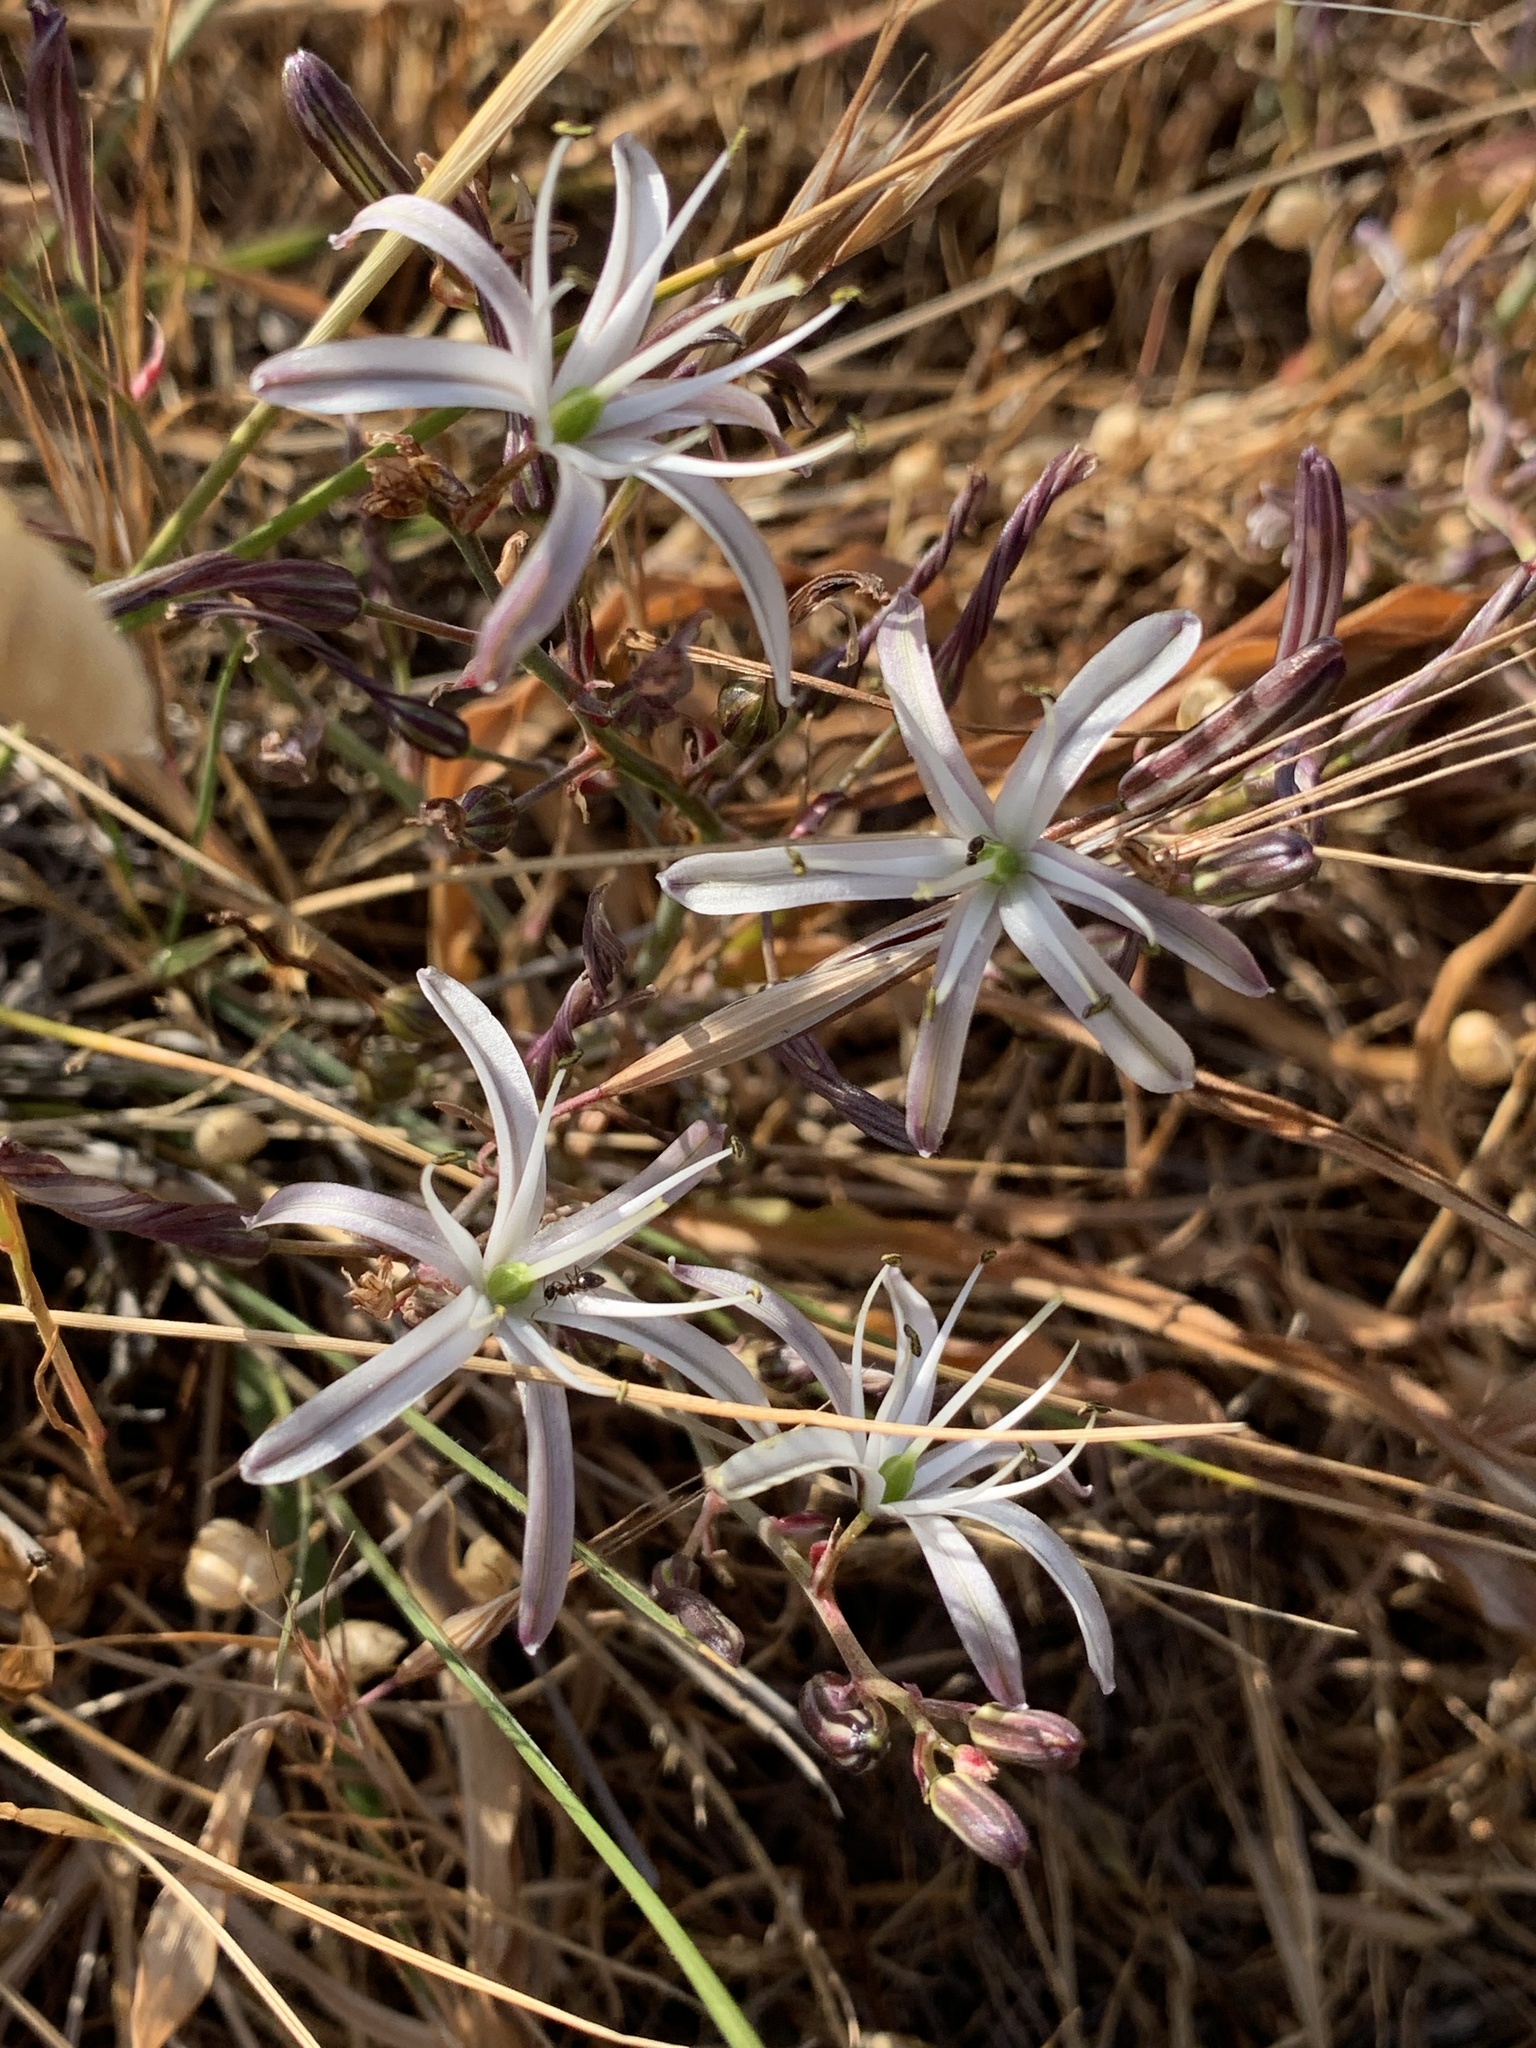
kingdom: Plantae
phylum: Tracheophyta
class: Liliopsida
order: Asparagales
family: Asparagaceae
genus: Chlorogalum
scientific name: Chlorogalum pomeridianum
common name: Amole
